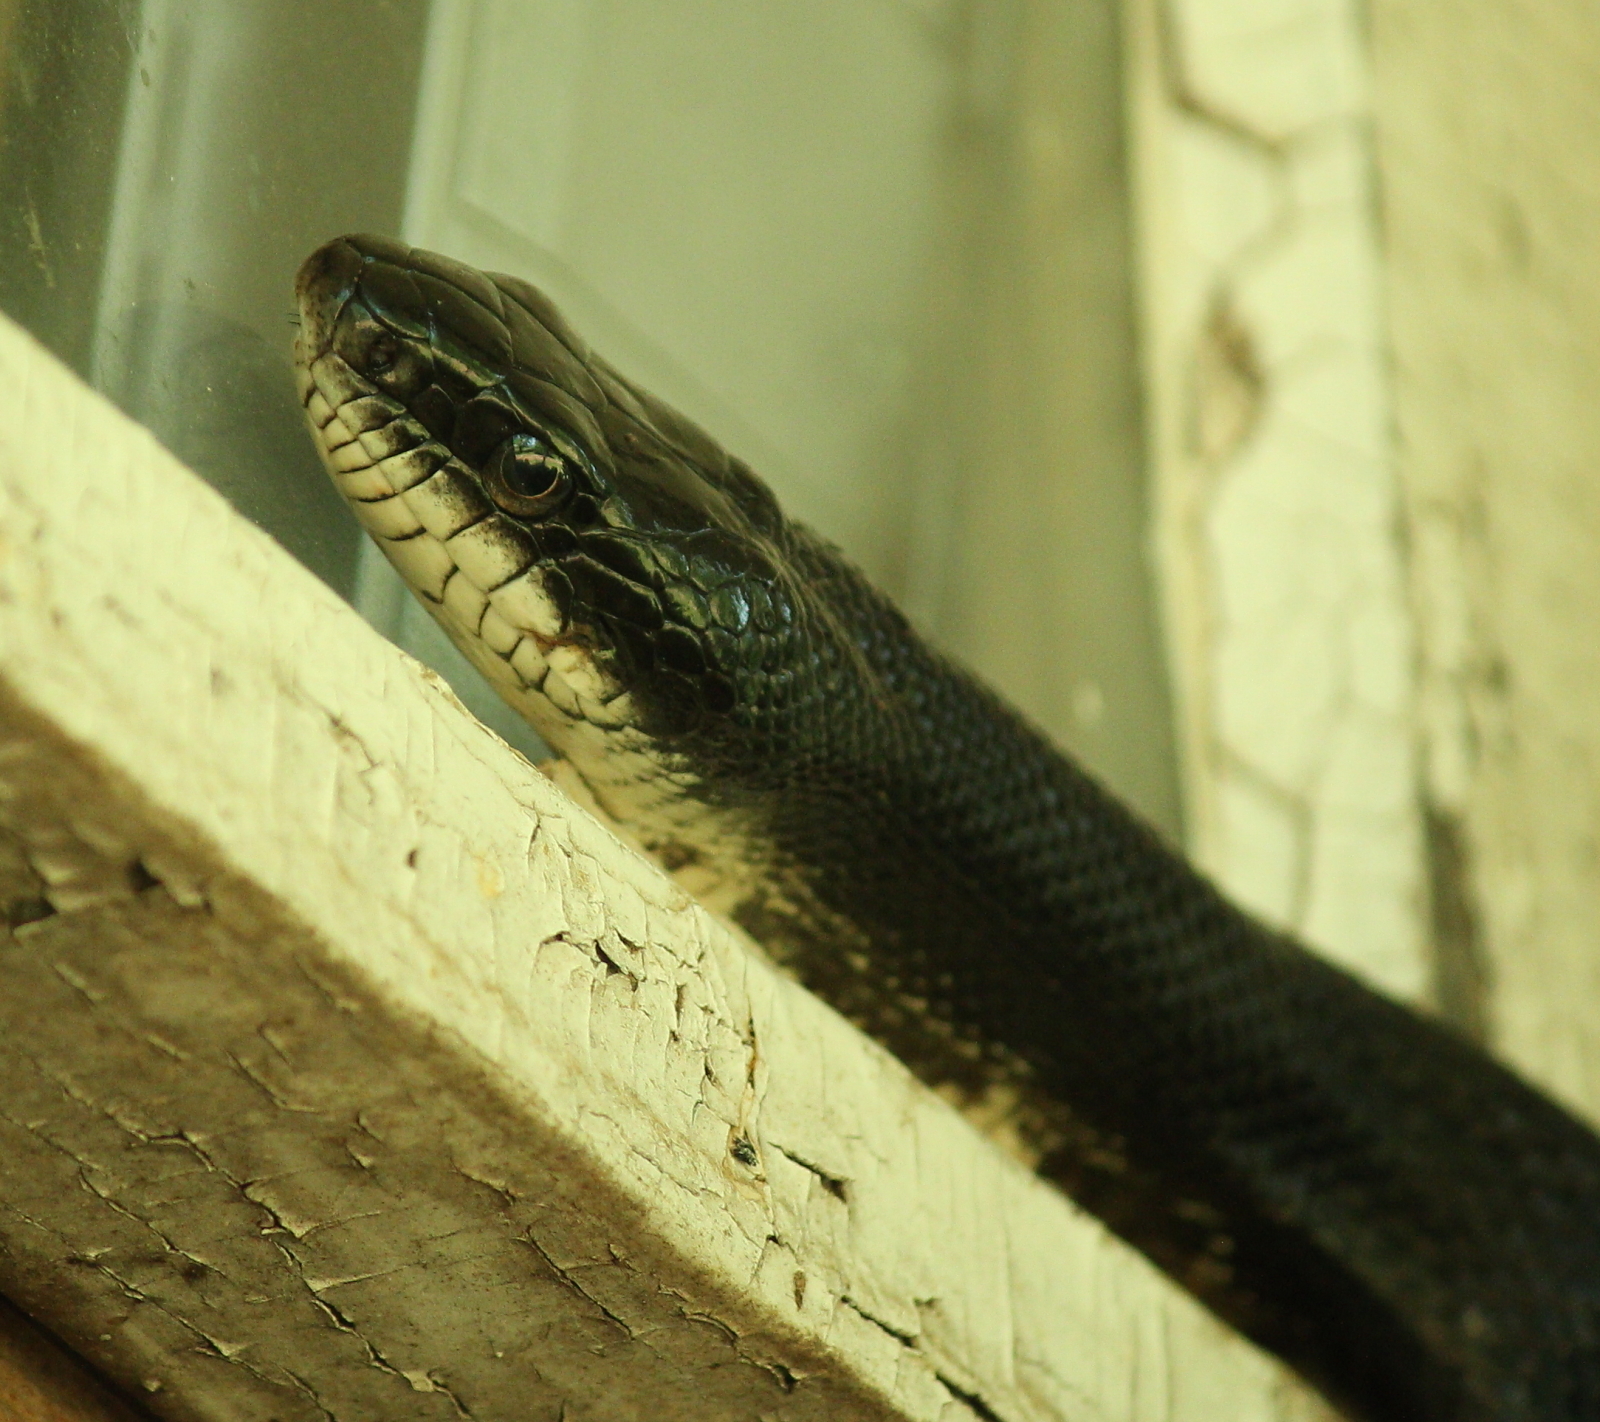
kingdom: Animalia
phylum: Chordata
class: Squamata
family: Colubridae
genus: Pantherophis
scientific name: Pantherophis obsoletus
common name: Black rat snake
